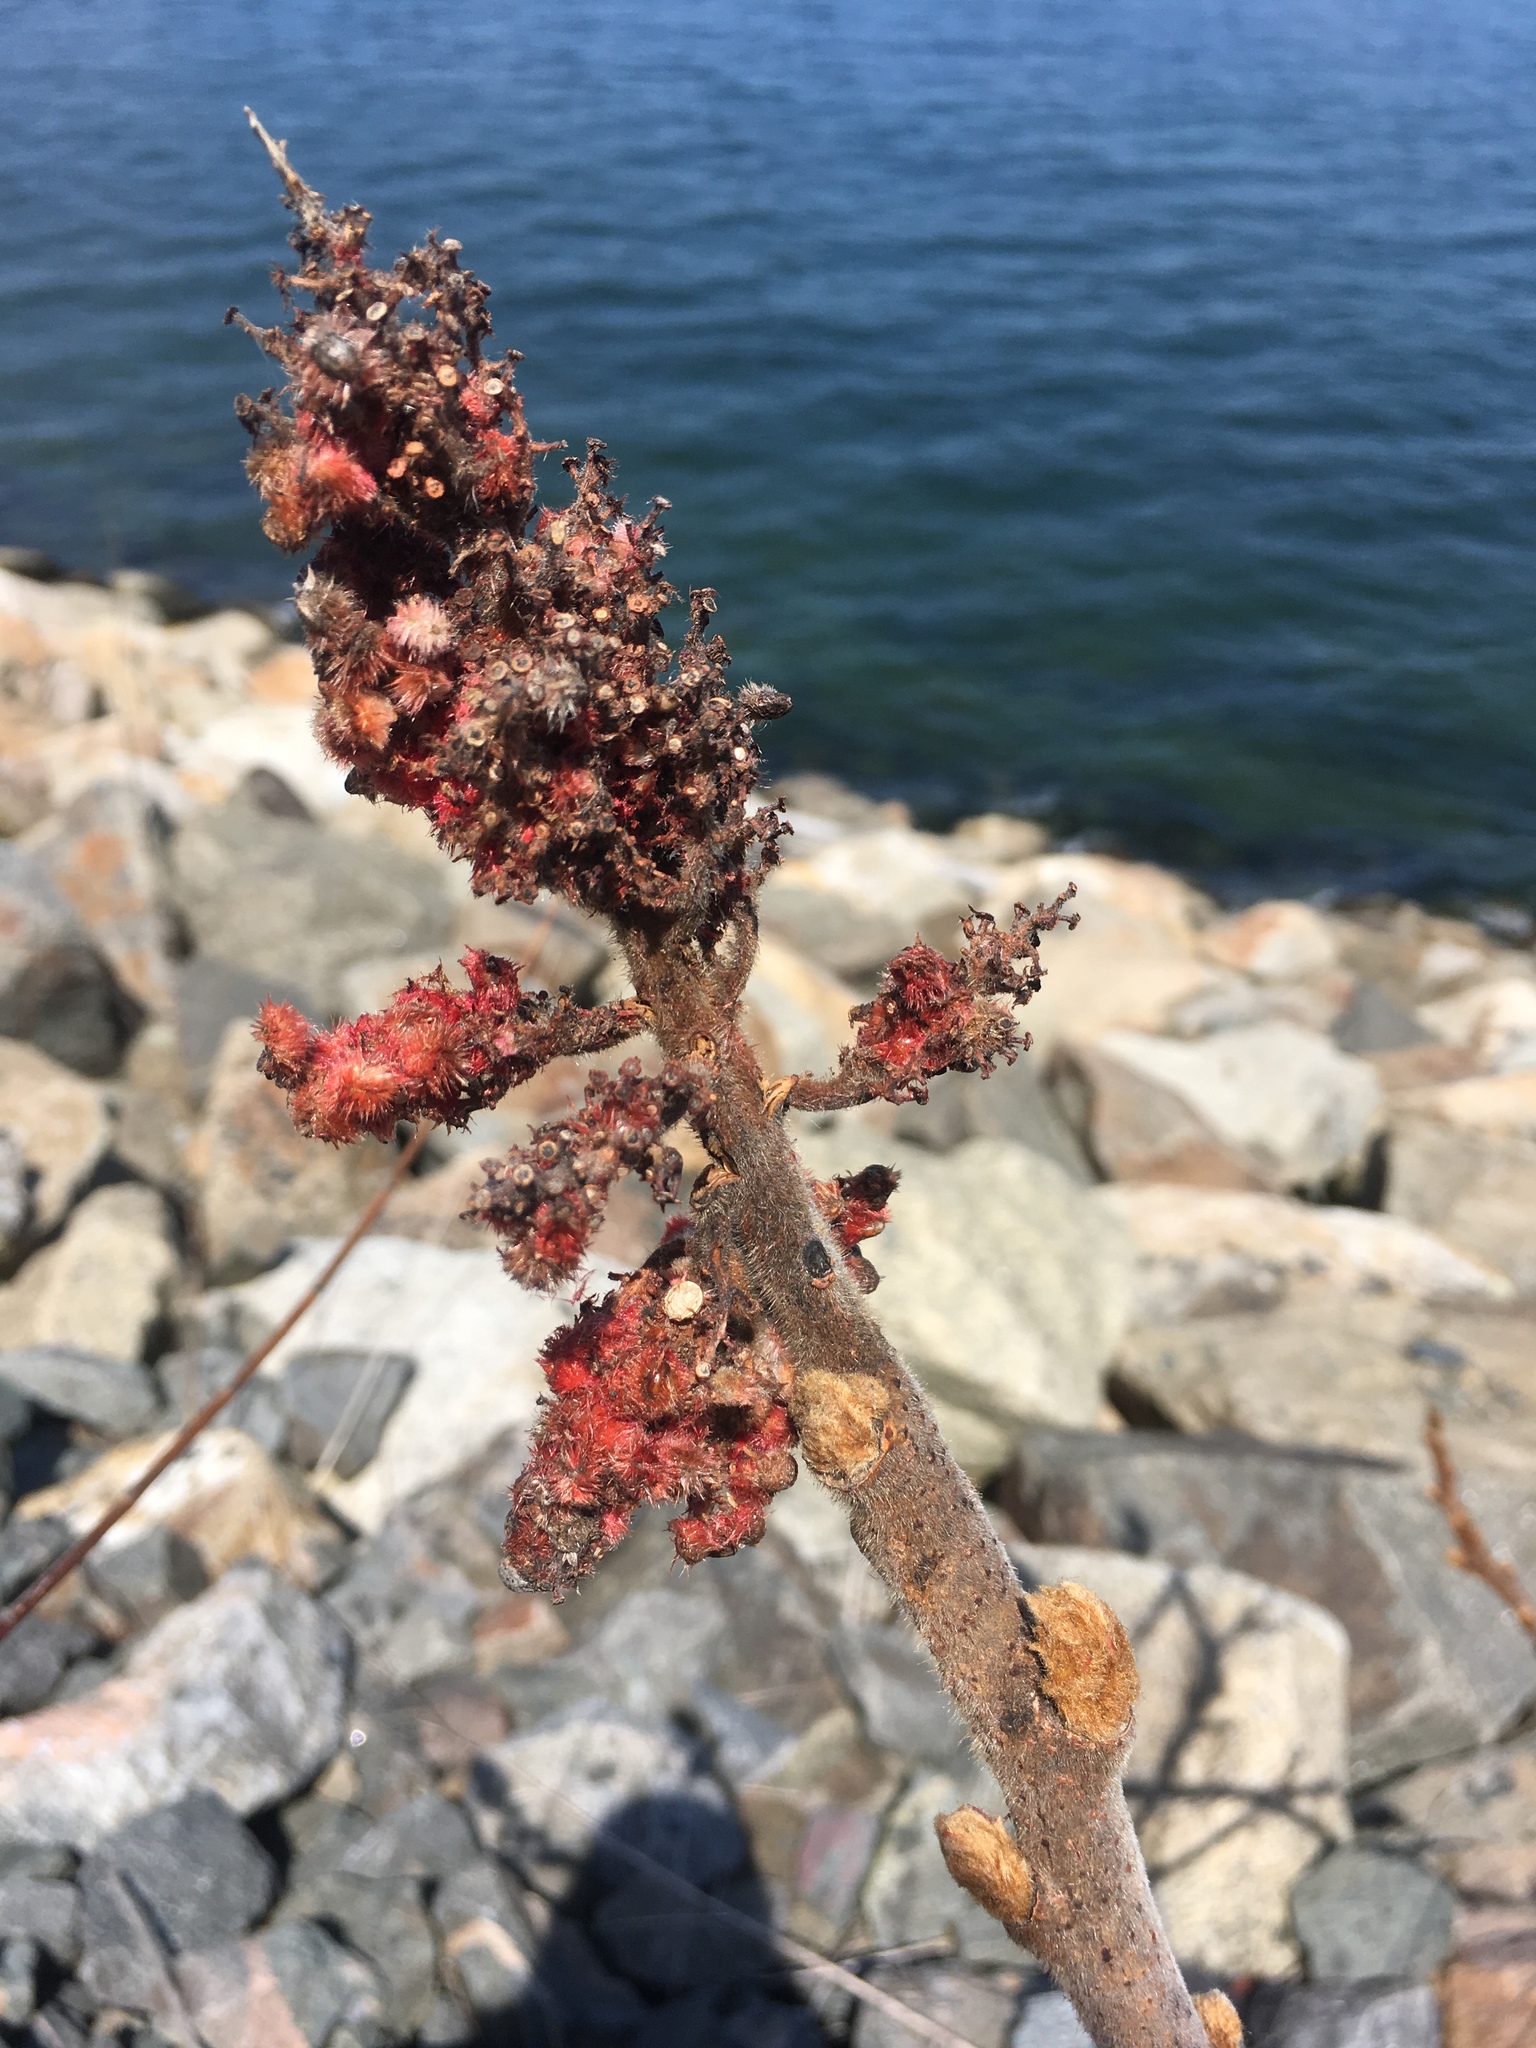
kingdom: Plantae
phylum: Tracheophyta
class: Magnoliopsida
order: Sapindales
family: Anacardiaceae
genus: Rhus
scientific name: Rhus typhina
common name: Staghorn sumac
